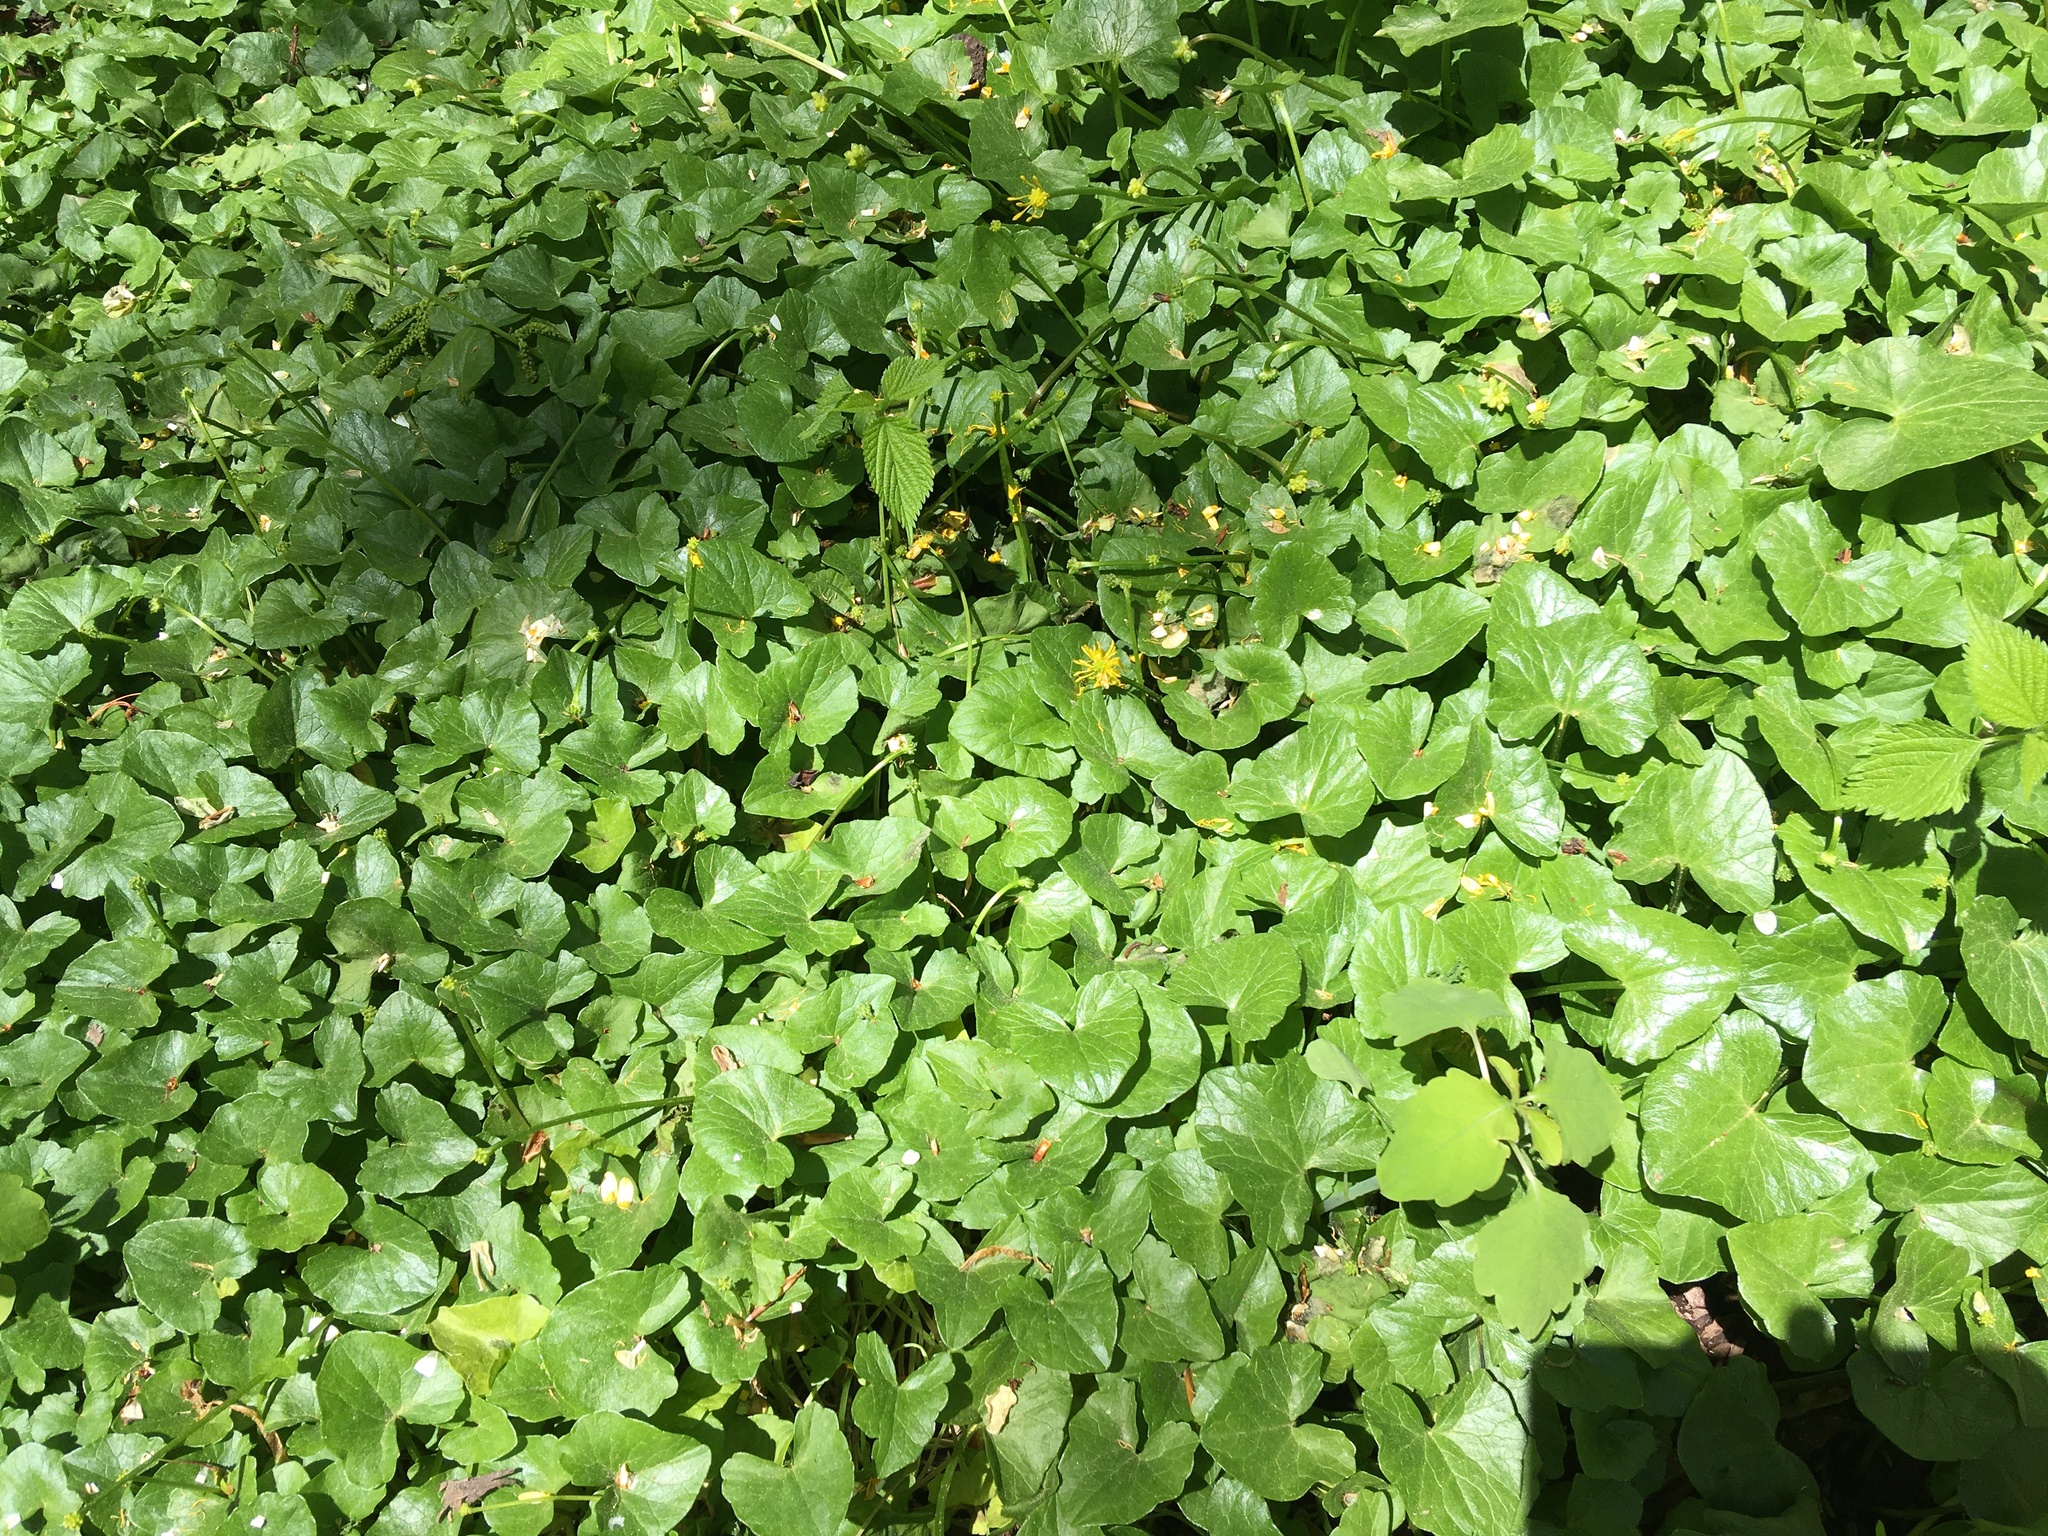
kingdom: Plantae
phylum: Tracheophyta
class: Magnoliopsida
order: Ranunculales
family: Ranunculaceae
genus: Ficaria
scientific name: Ficaria verna
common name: Lesser celandine
